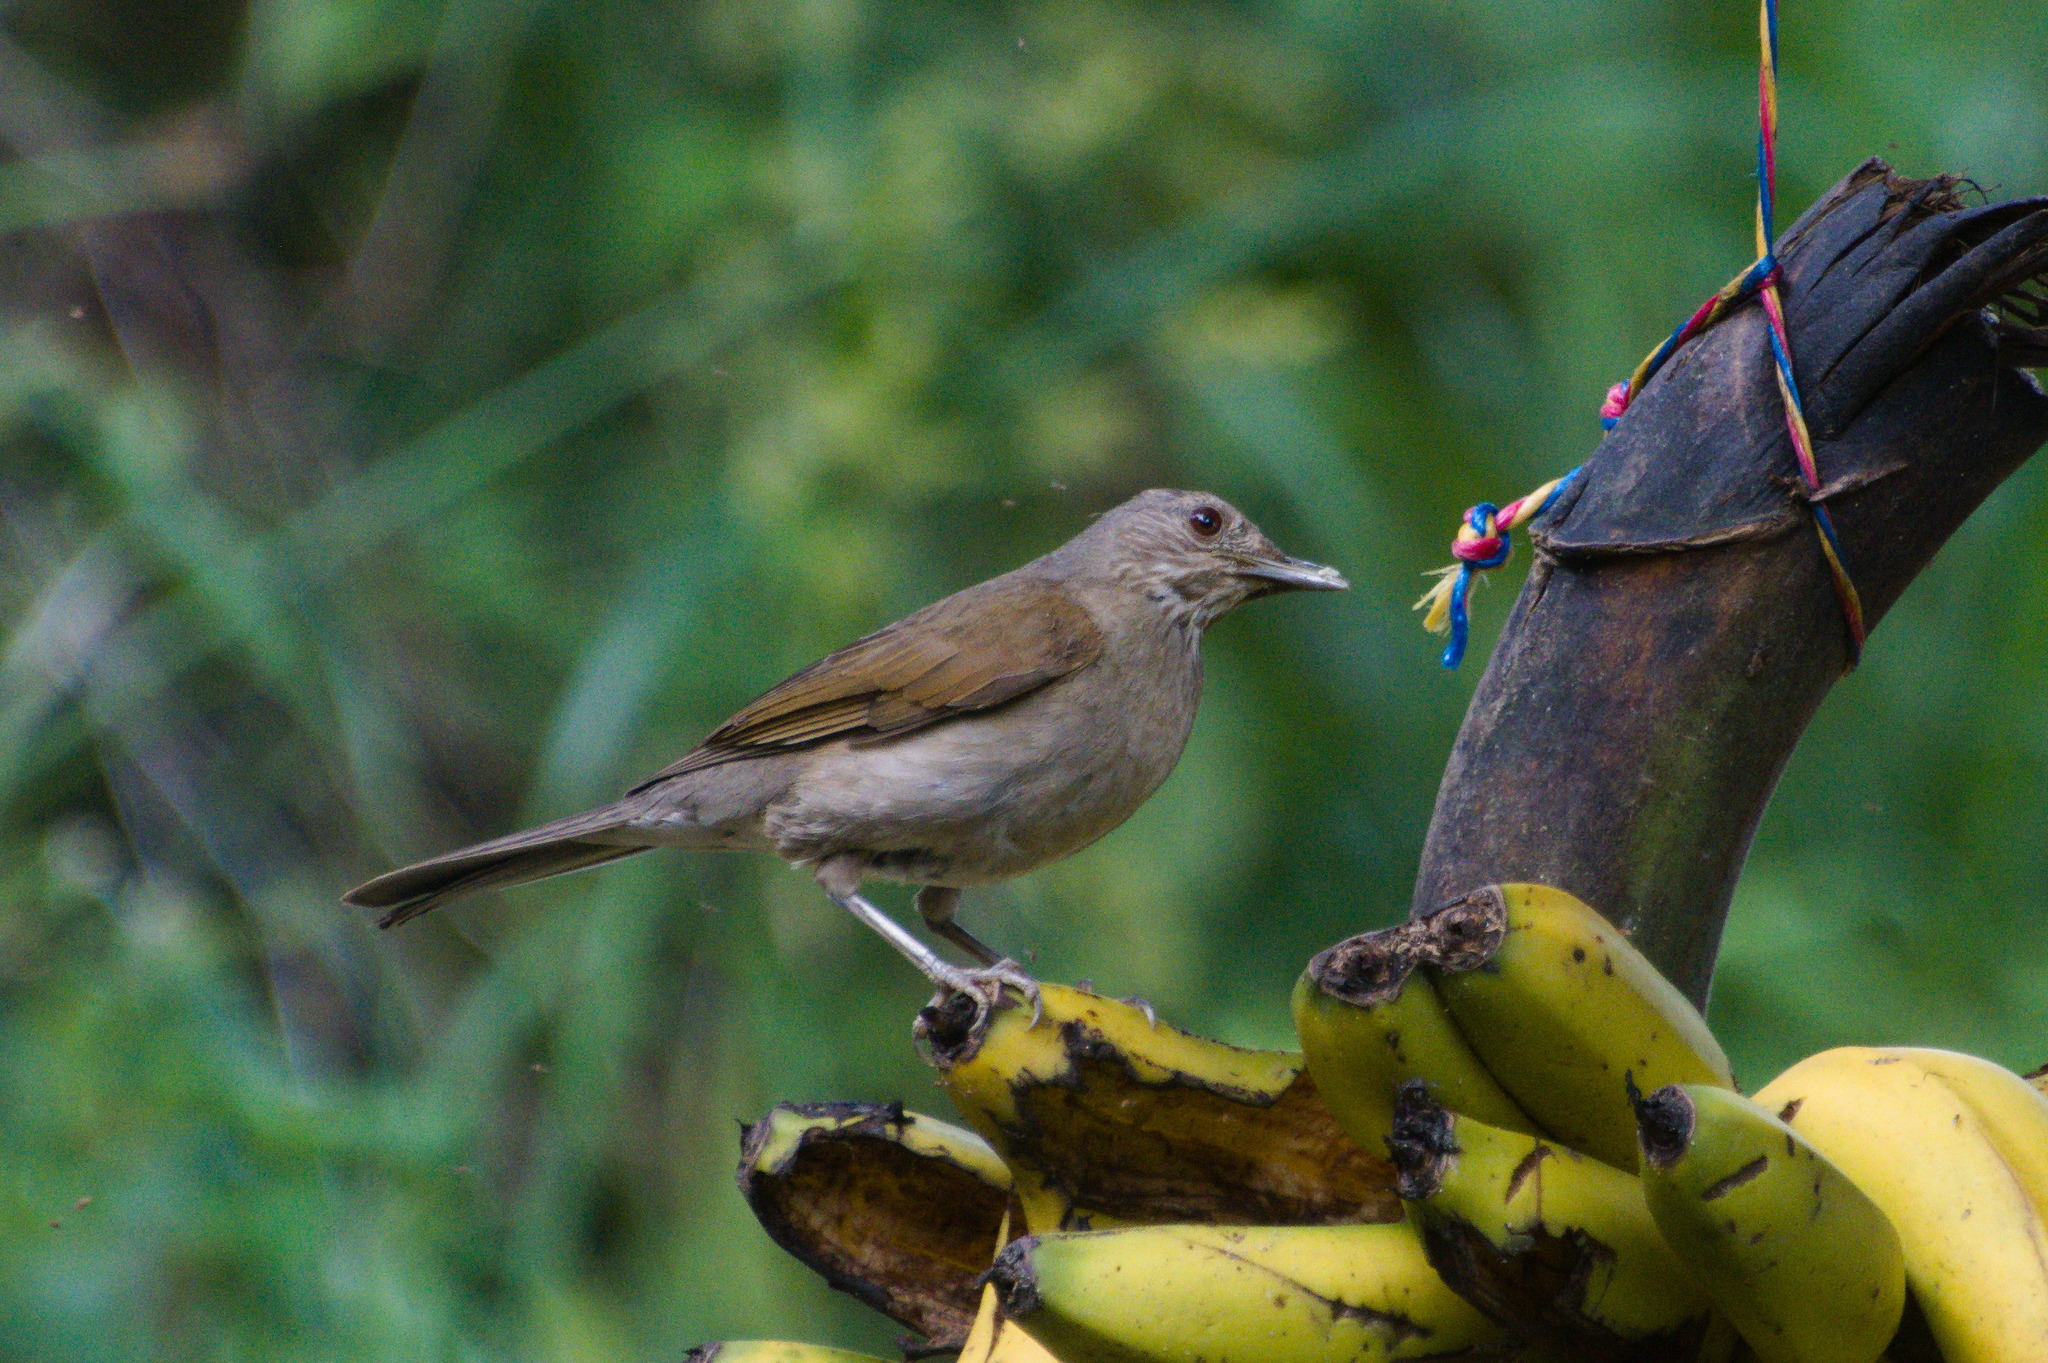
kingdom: Animalia
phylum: Chordata
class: Aves
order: Passeriformes
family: Turdidae
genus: Turdus
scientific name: Turdus leucomelas
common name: Pale-breasted thrush
